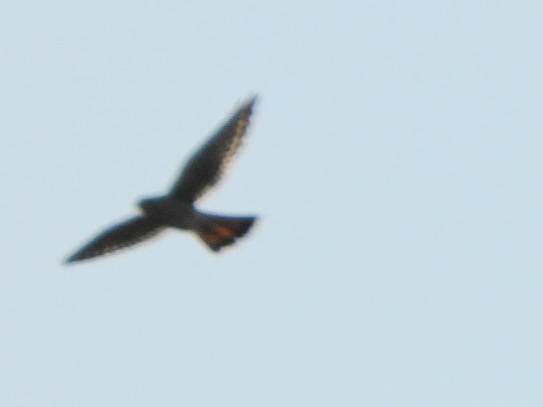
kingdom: Animalia
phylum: Chordata
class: Aves
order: Falconiformes
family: Falconidae
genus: Falco
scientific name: Falco sparverius
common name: American kestrel
